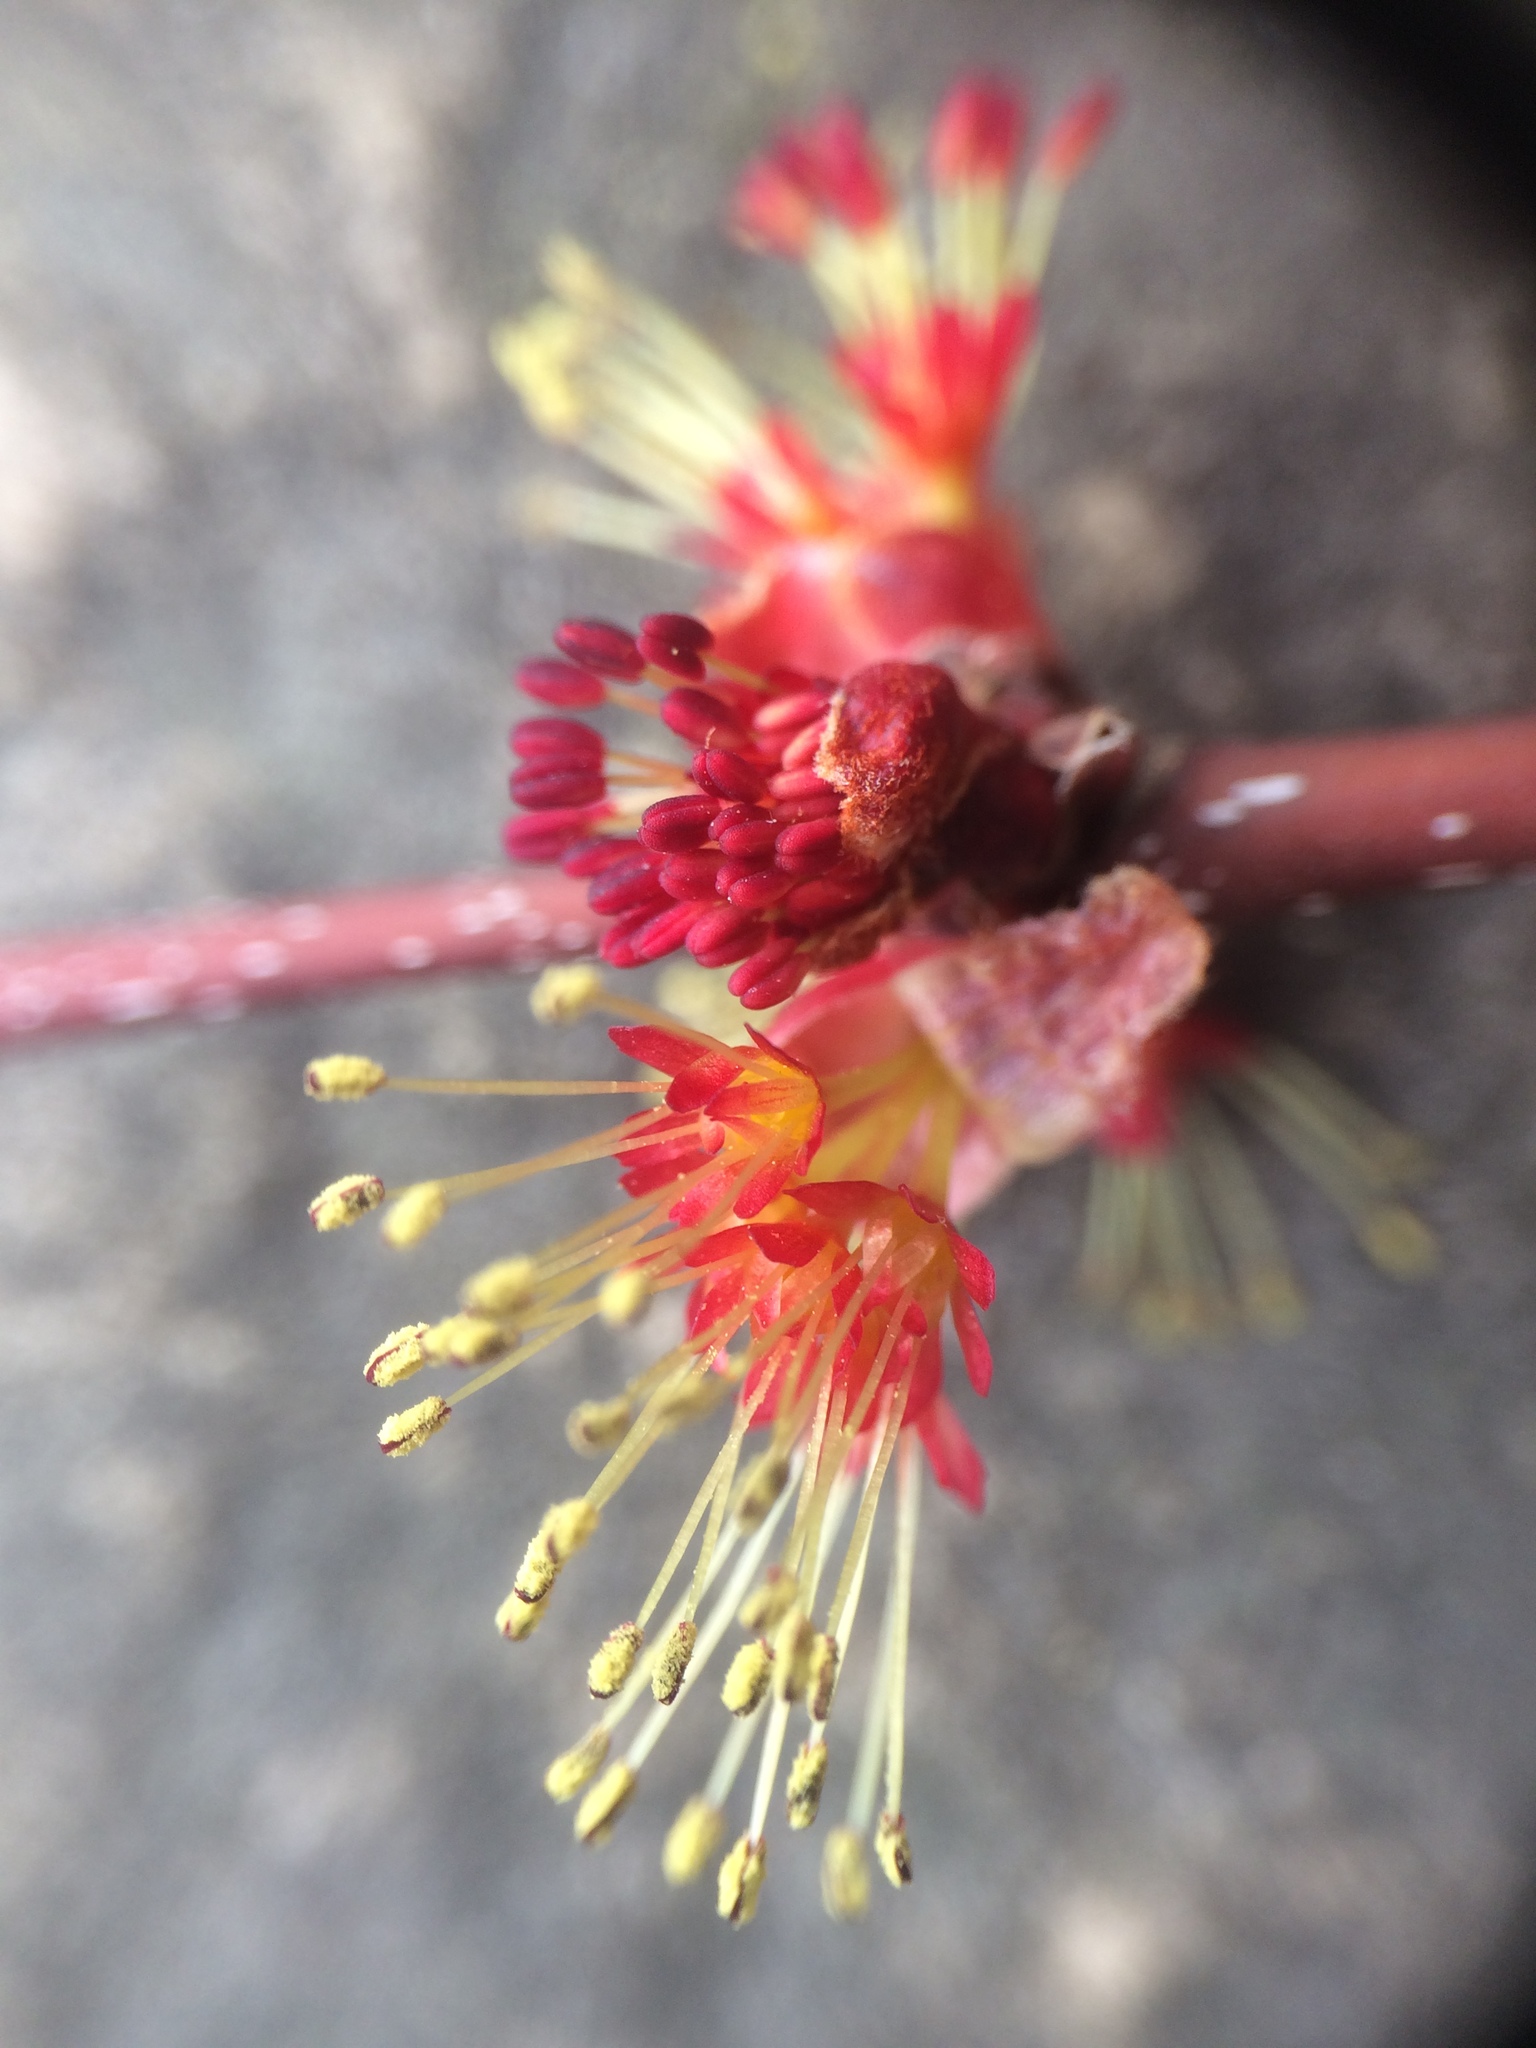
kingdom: Plantae
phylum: Tracheophyta
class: Magnoliopsida
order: Sapindales
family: Sapindaceae
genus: Acer
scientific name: Acer rubrum
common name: Red maple
